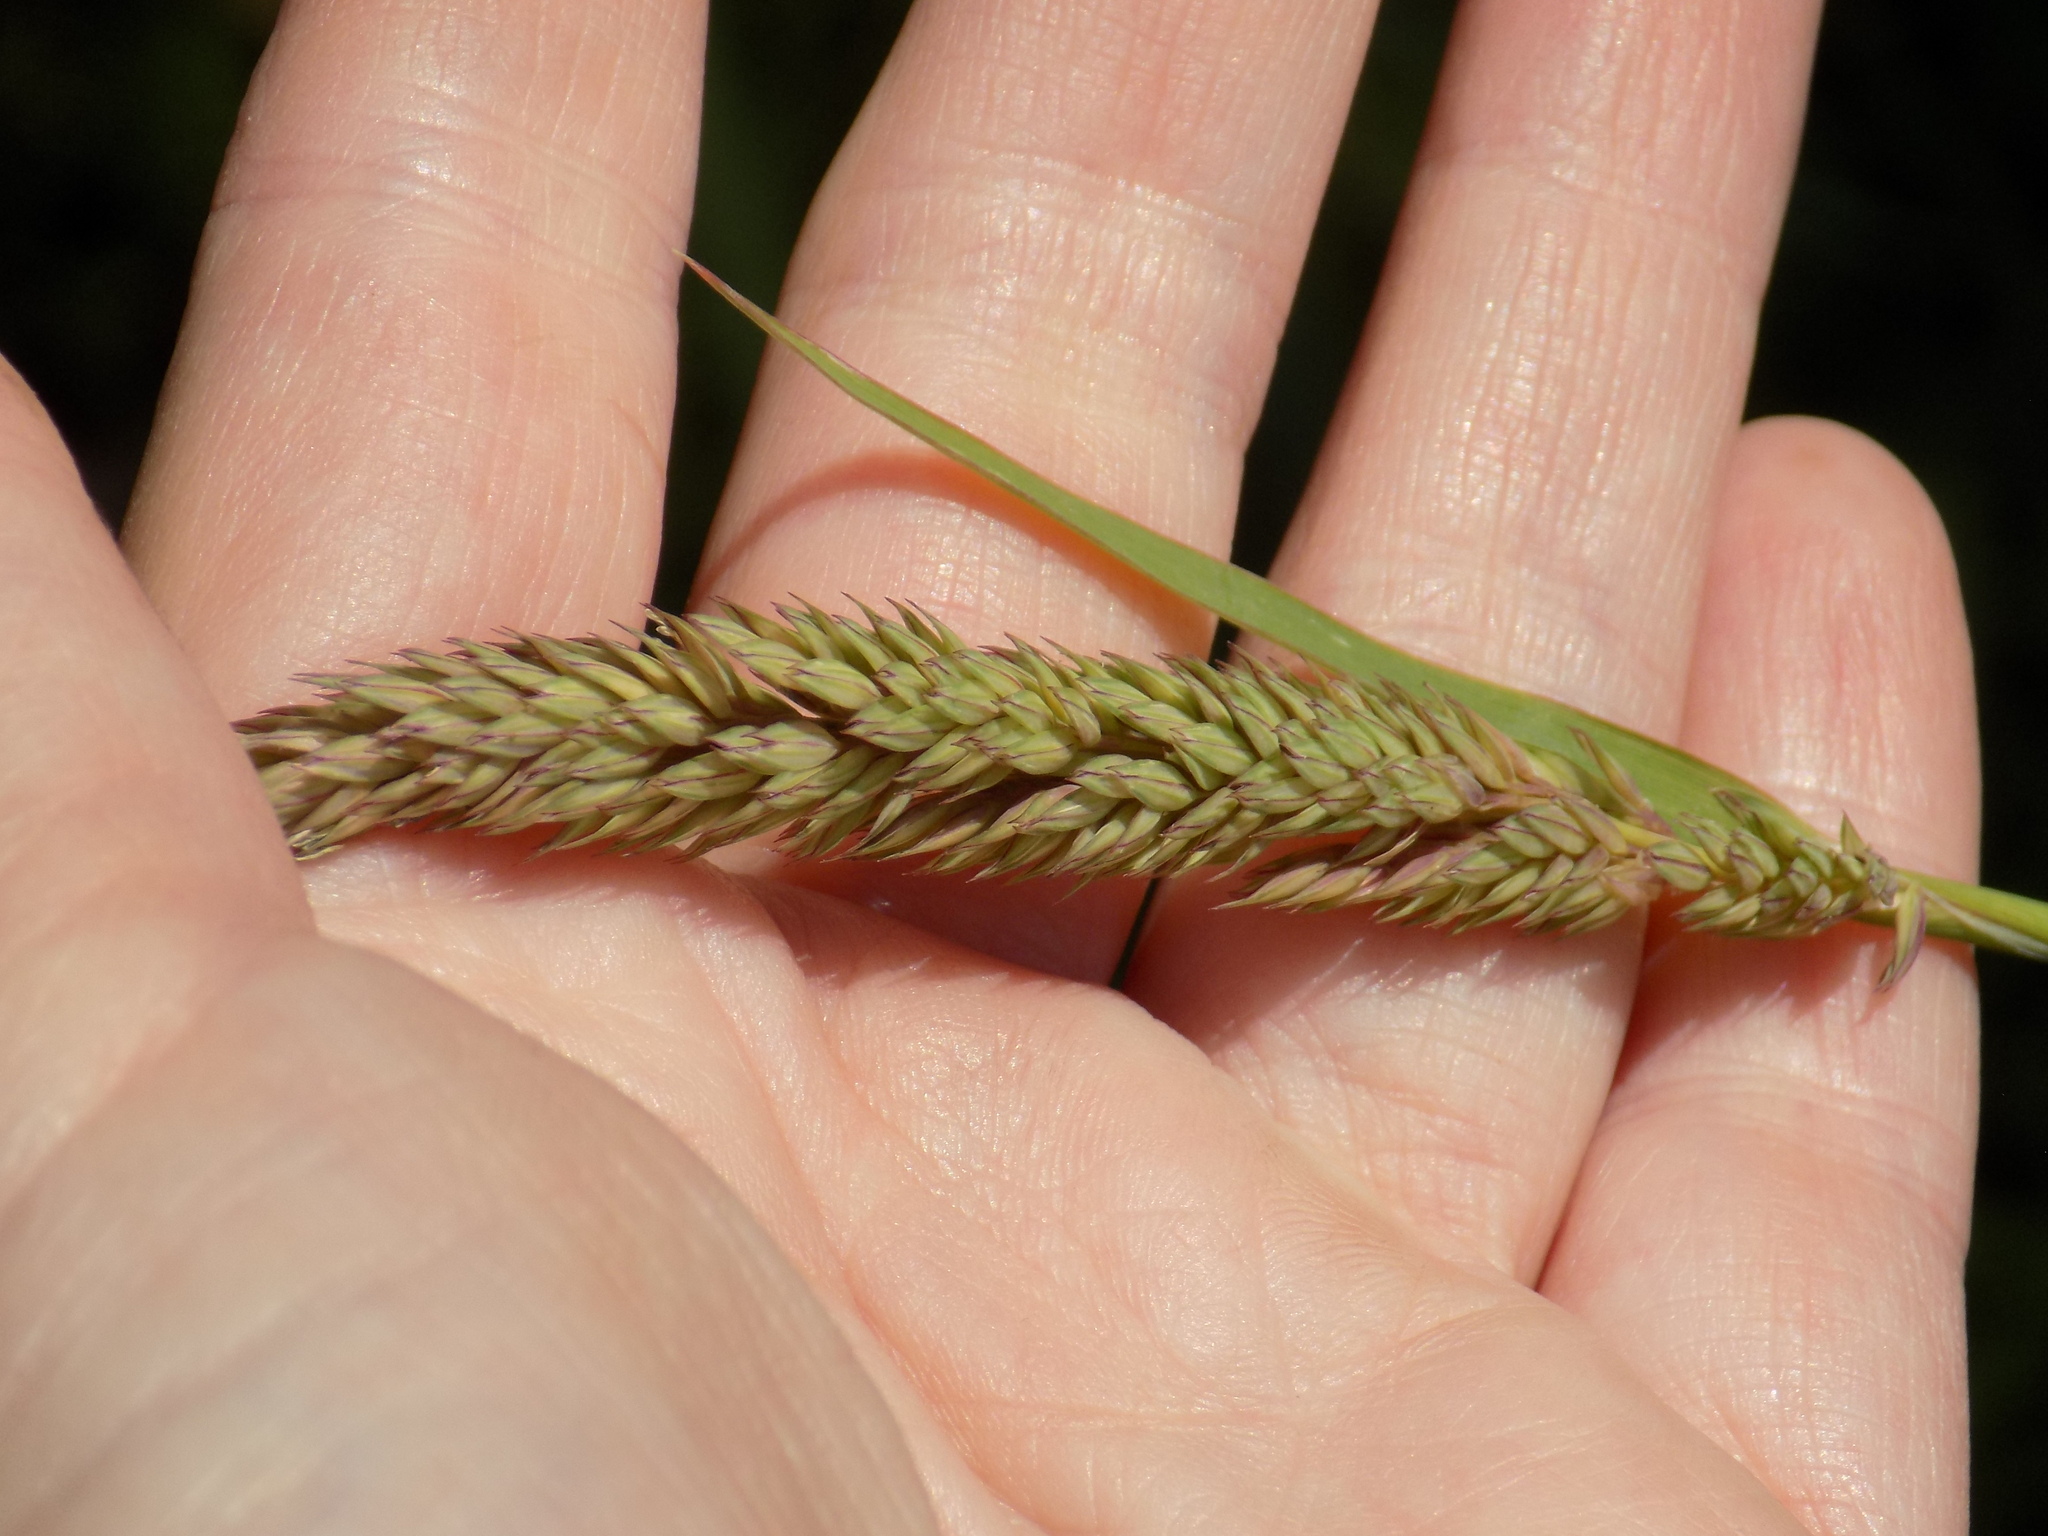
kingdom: Plantae
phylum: Tracheophyta
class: Liliopsida
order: Poales
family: Poaceae
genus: Phalaris
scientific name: Phalaris arundinacea
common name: Reed canary-grass
